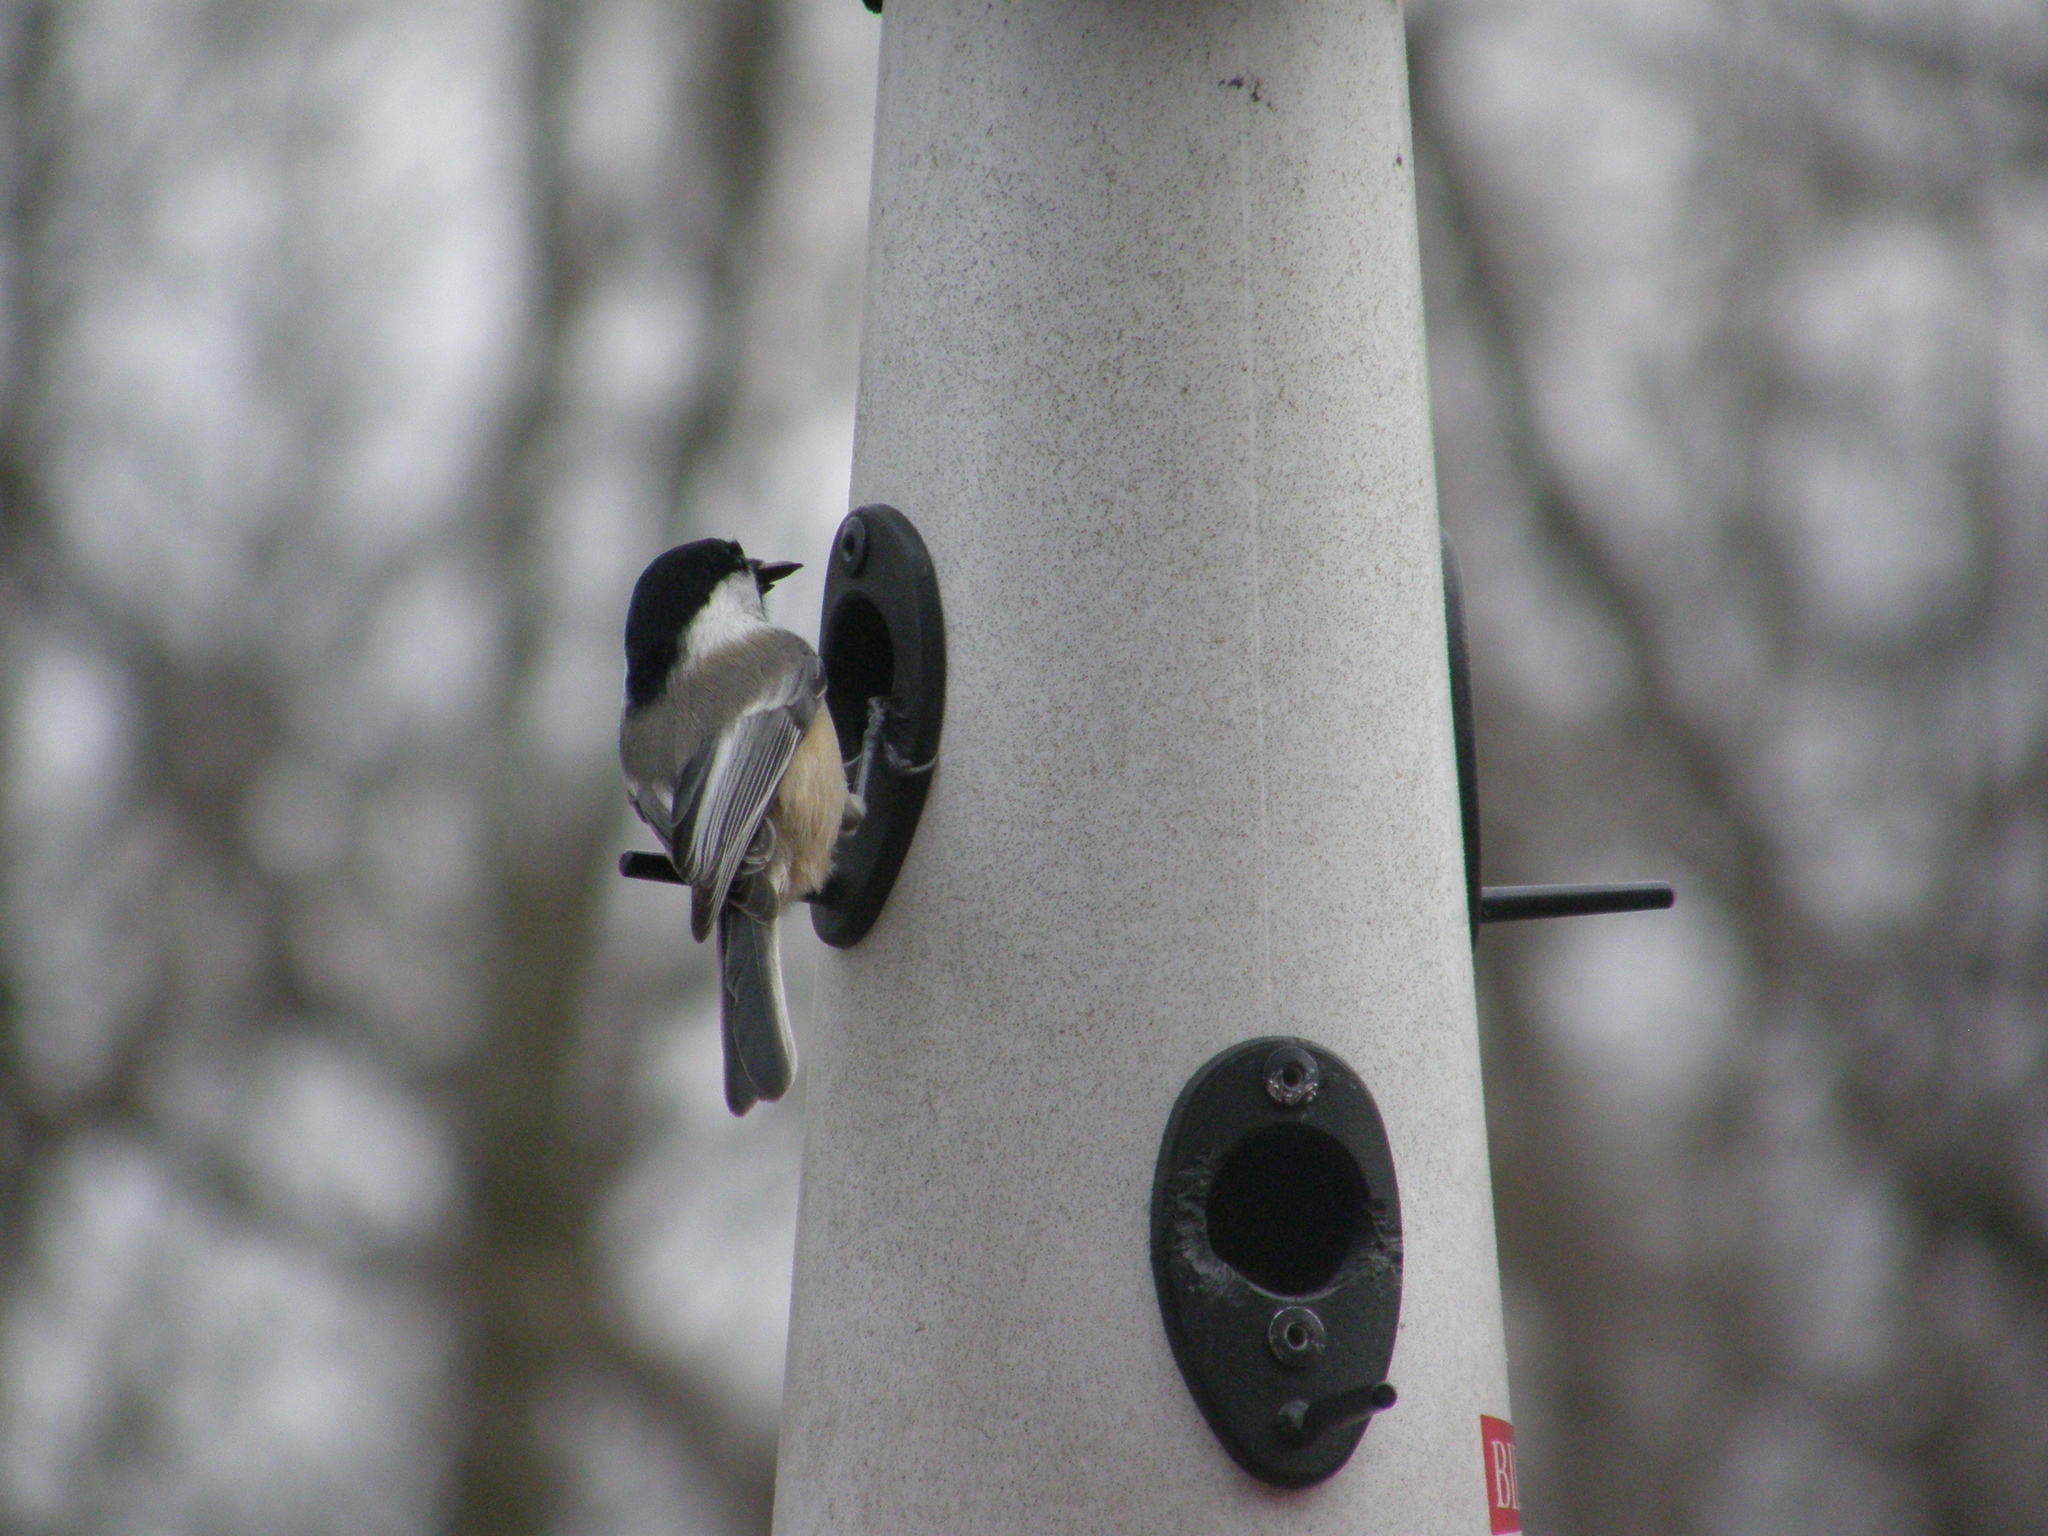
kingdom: Animalia
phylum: Chordata
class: Aves
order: Passeriformes
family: Paridae
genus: Poecile
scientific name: Poecile atricapillus
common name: Black-capped chickadee
